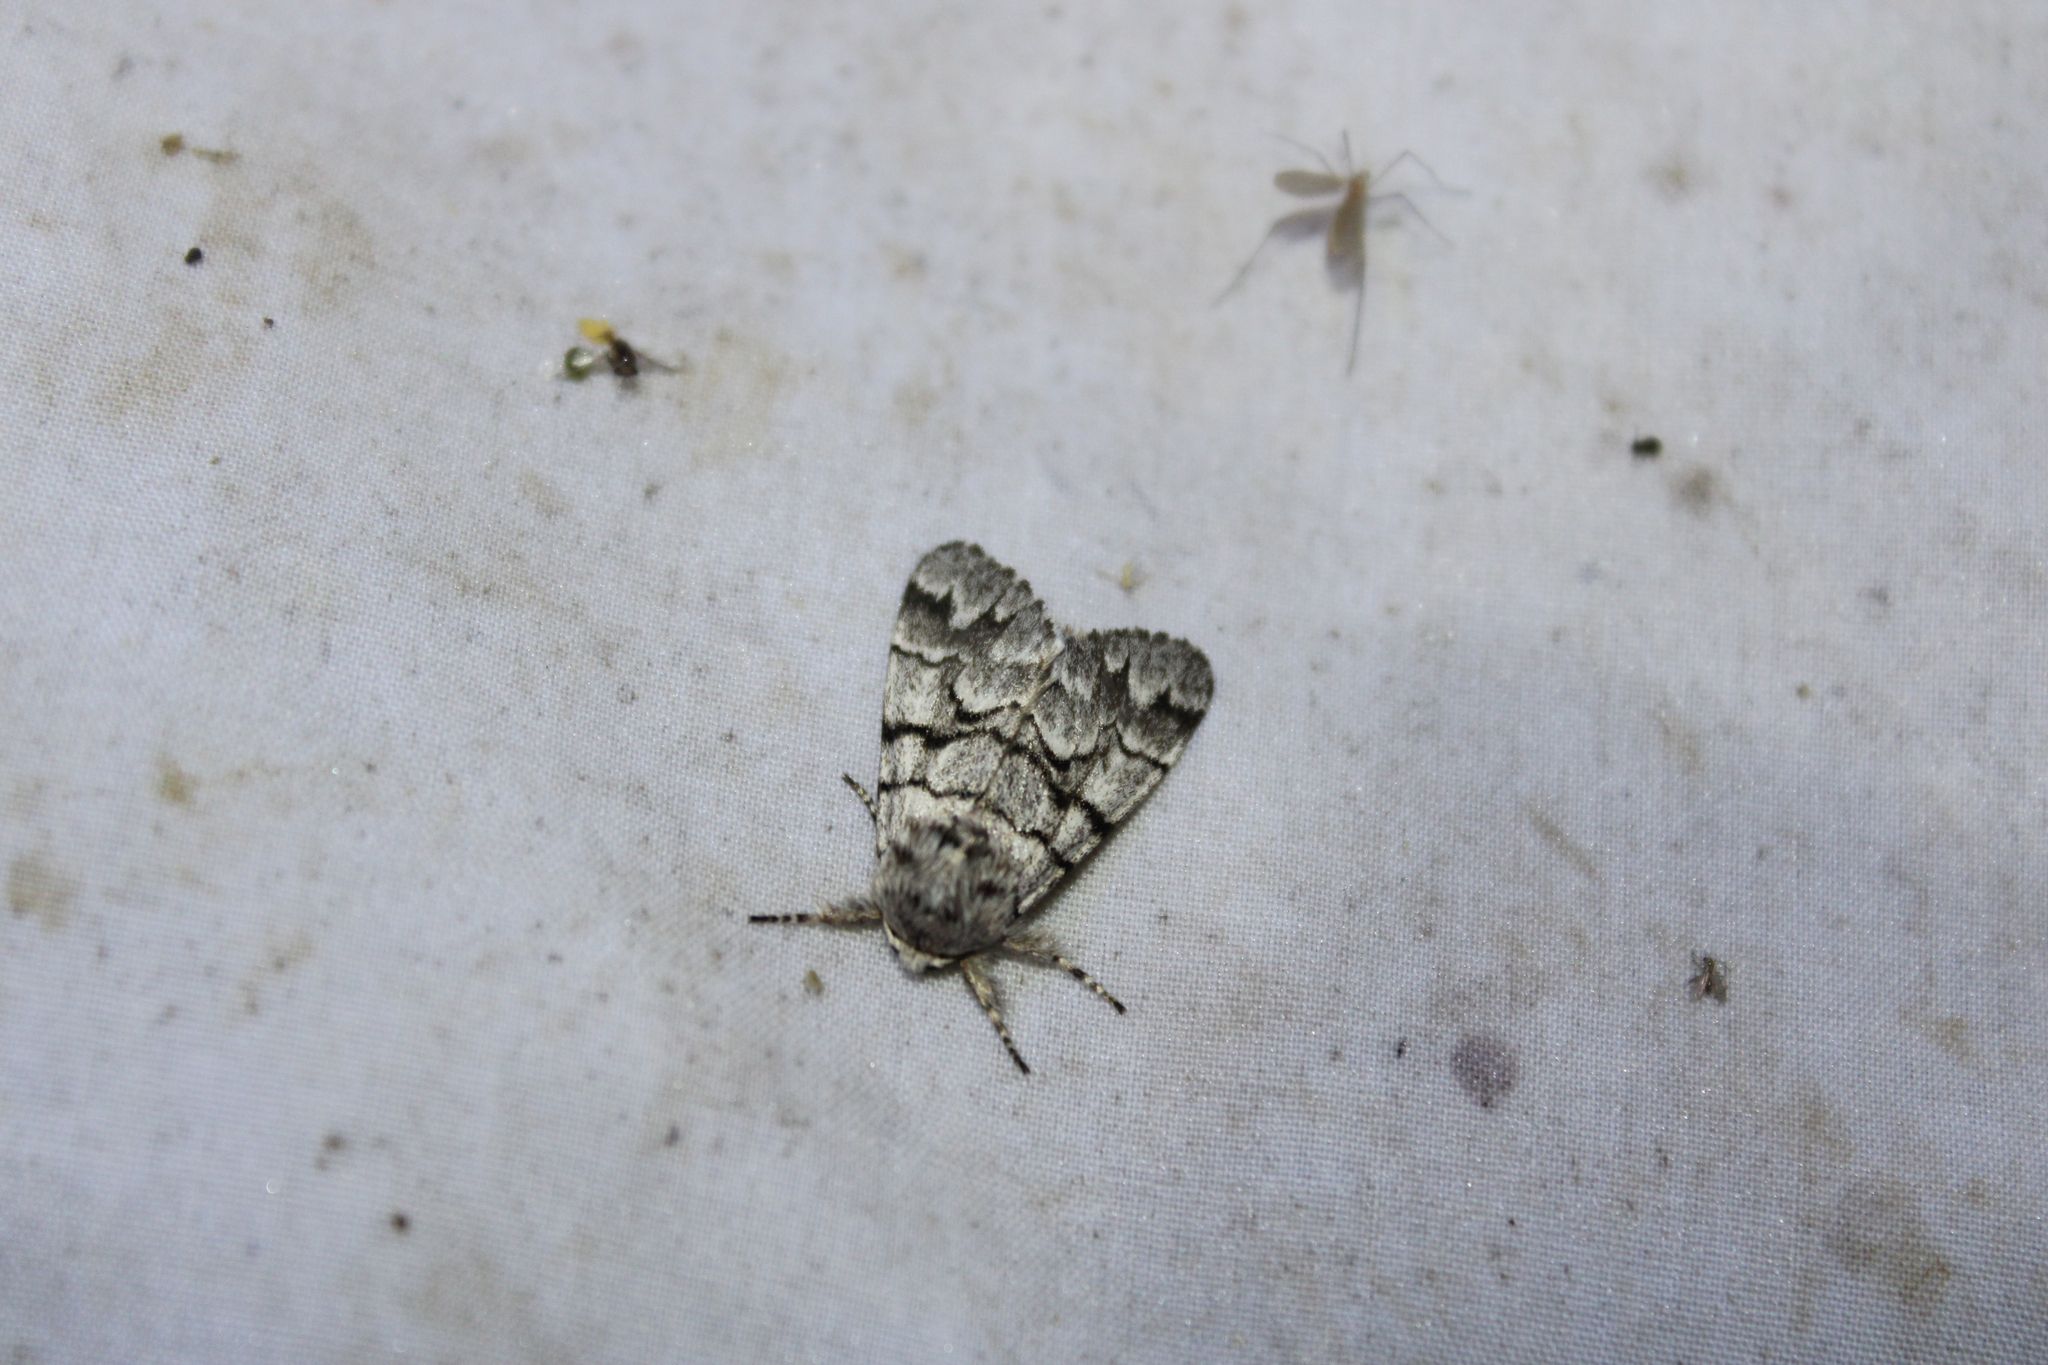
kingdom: Animalia
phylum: Arthropoda
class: Insecta
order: Lepidoptera
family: Noctuidae
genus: Panthea
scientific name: Panthea furcilla
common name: Eastern panthea moth
